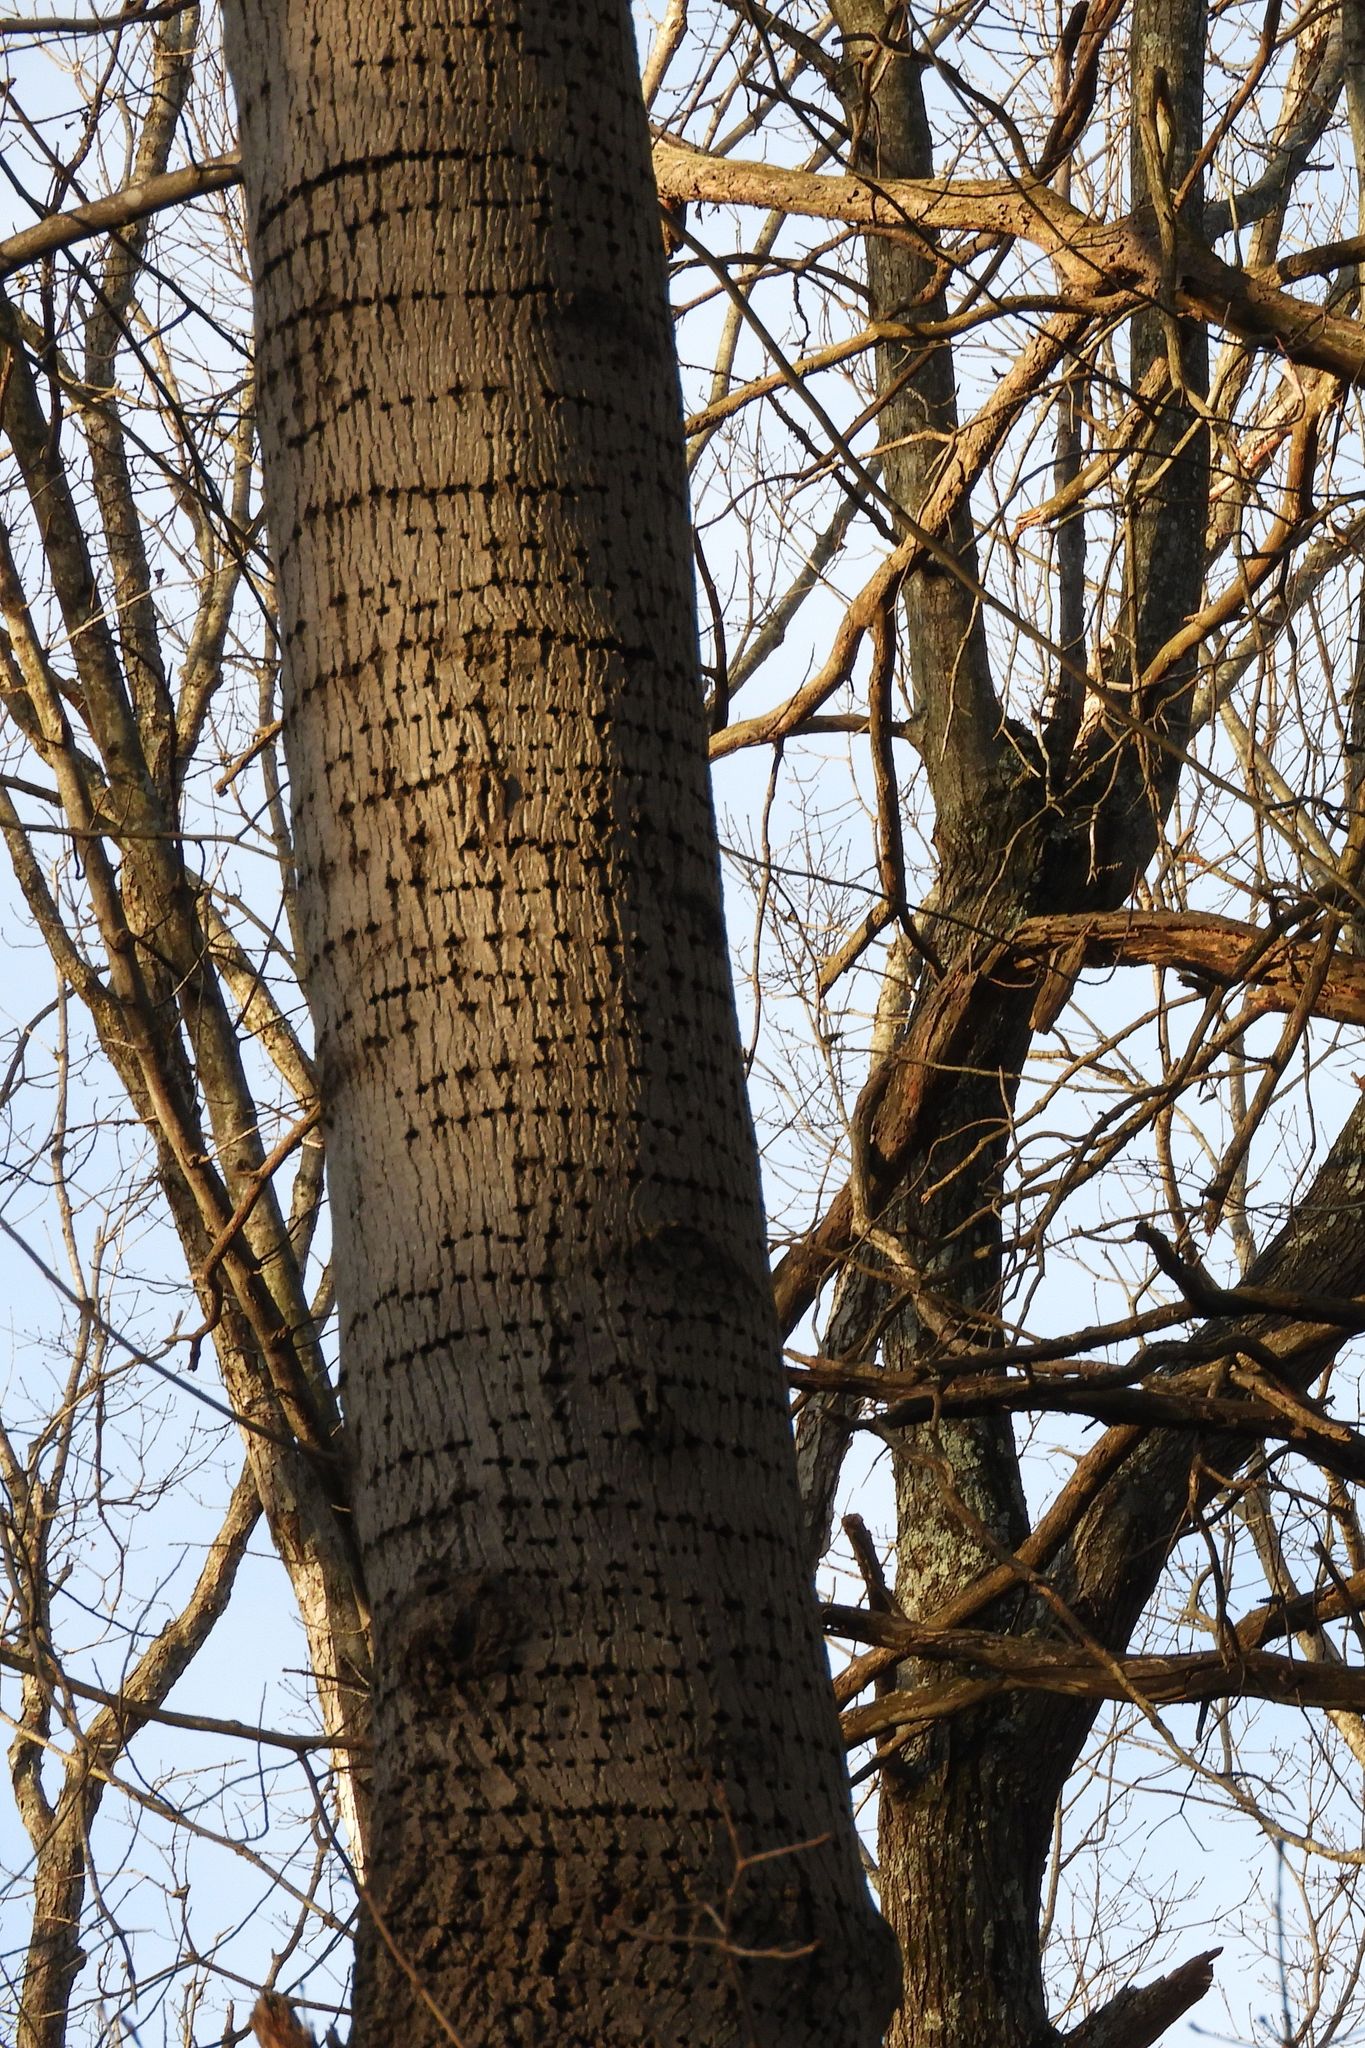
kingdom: Animalia
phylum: Chordata
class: Aves
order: Piciformes
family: Picidae
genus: Sphyrapicus
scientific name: Sphyrapicus varius
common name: Yellow-bellied sapsucker
